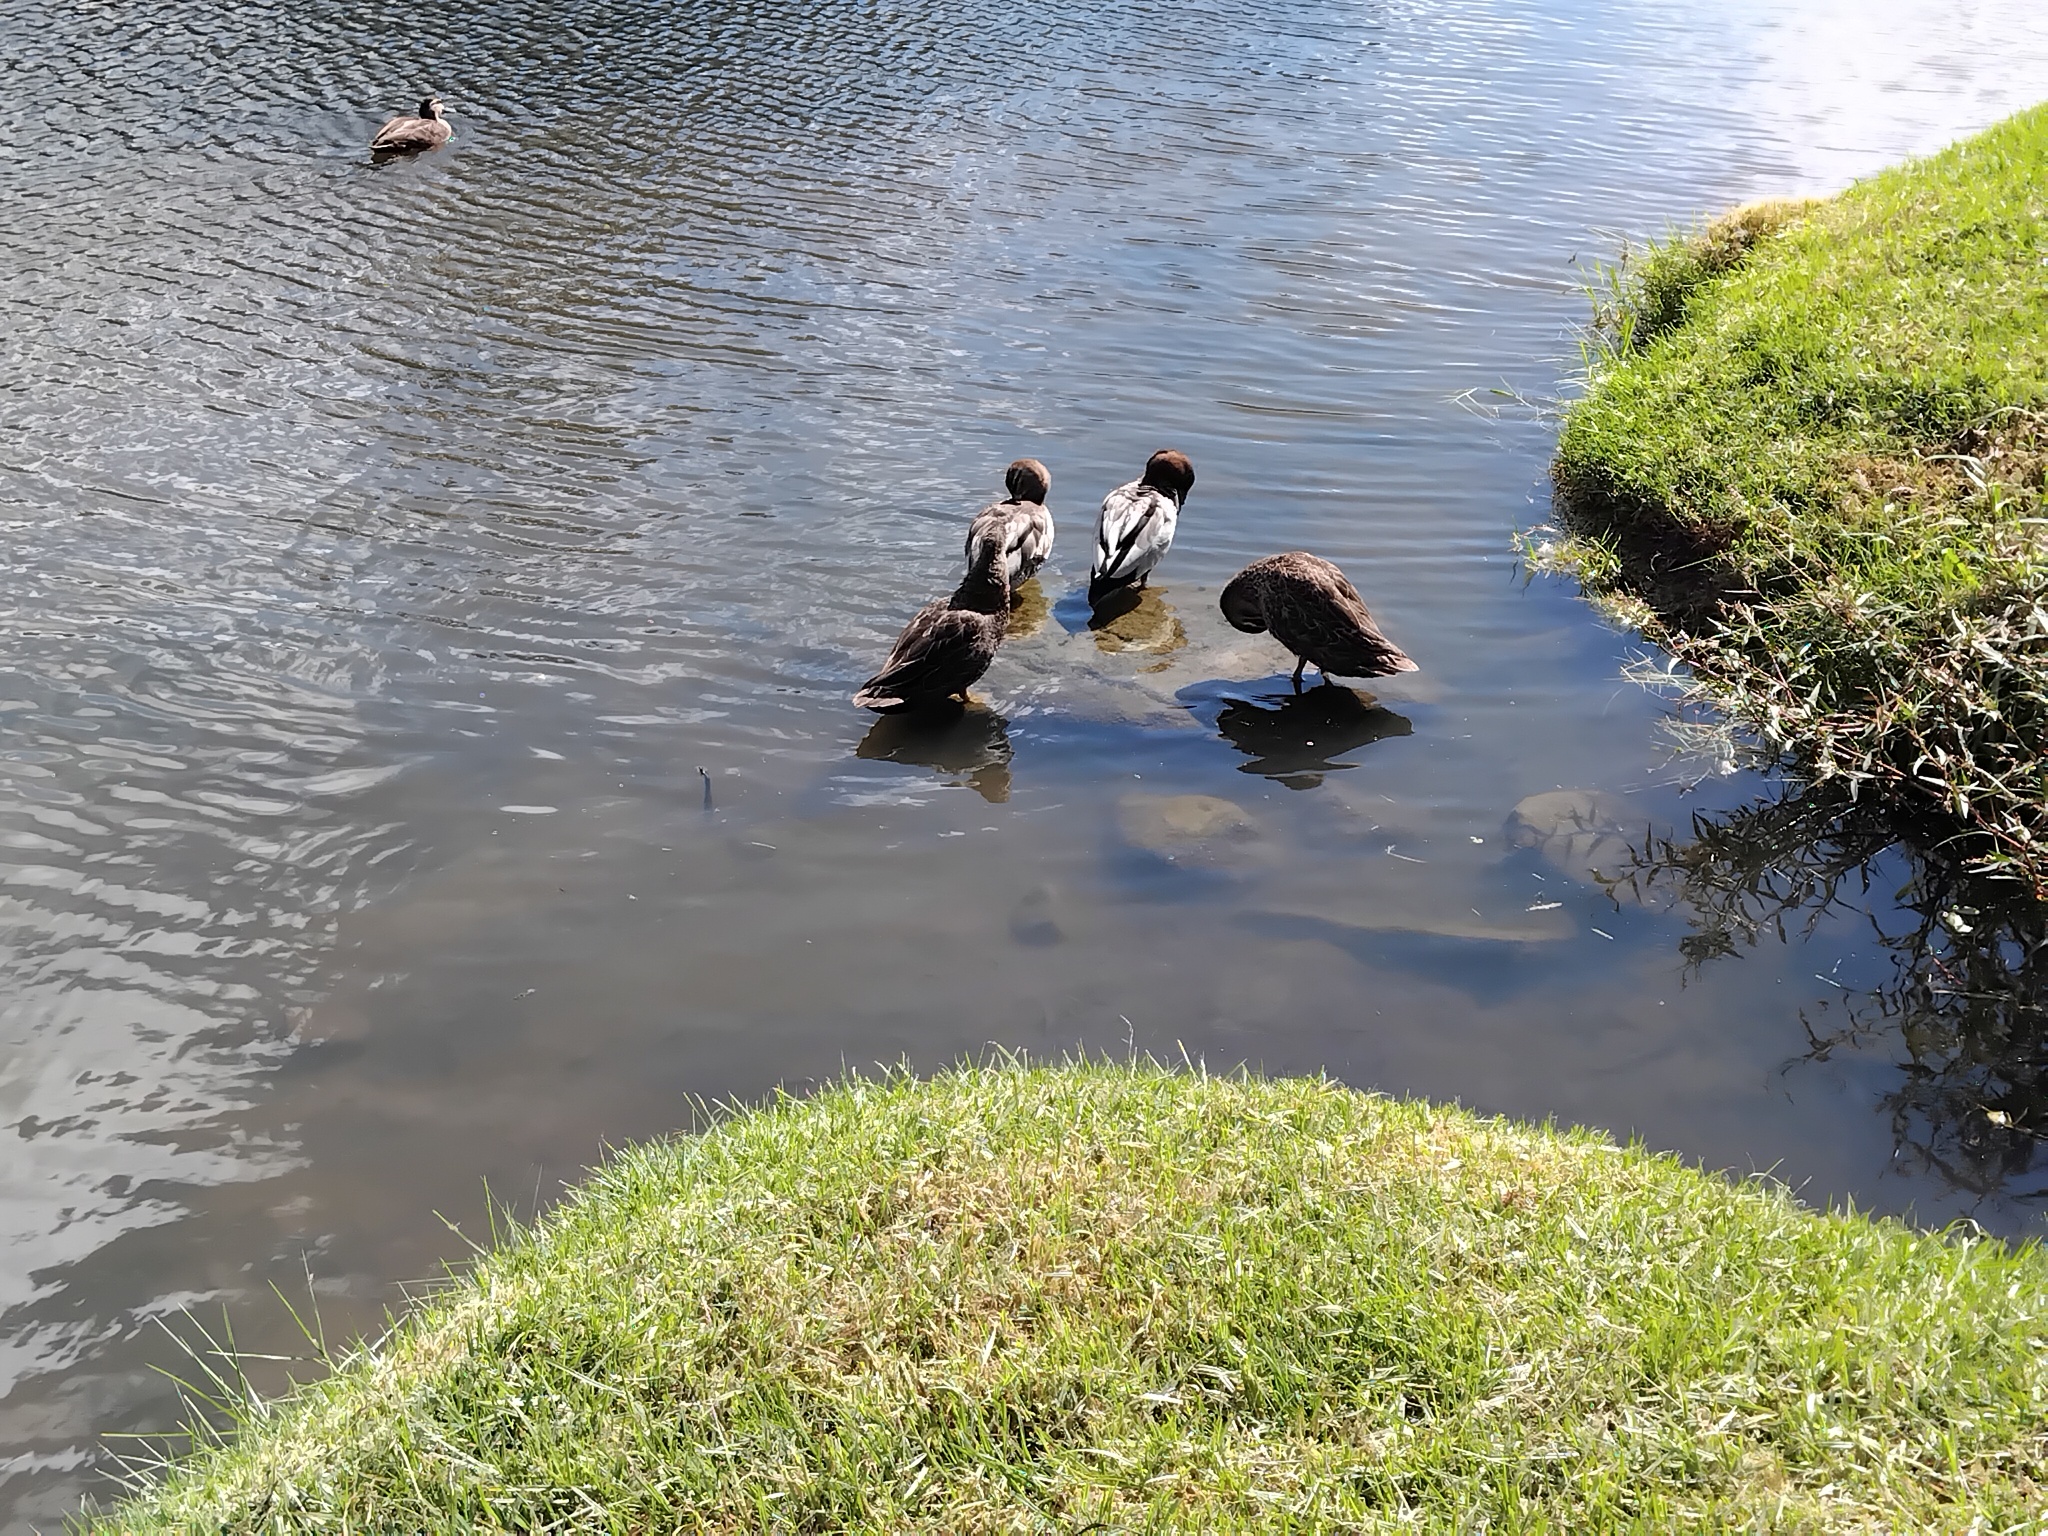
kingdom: Animalia
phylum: Chordata
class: Aves
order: Anseriformes
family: Anatidae
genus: Chenonetta
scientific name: Chenonetta jubata
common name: Maned duck
